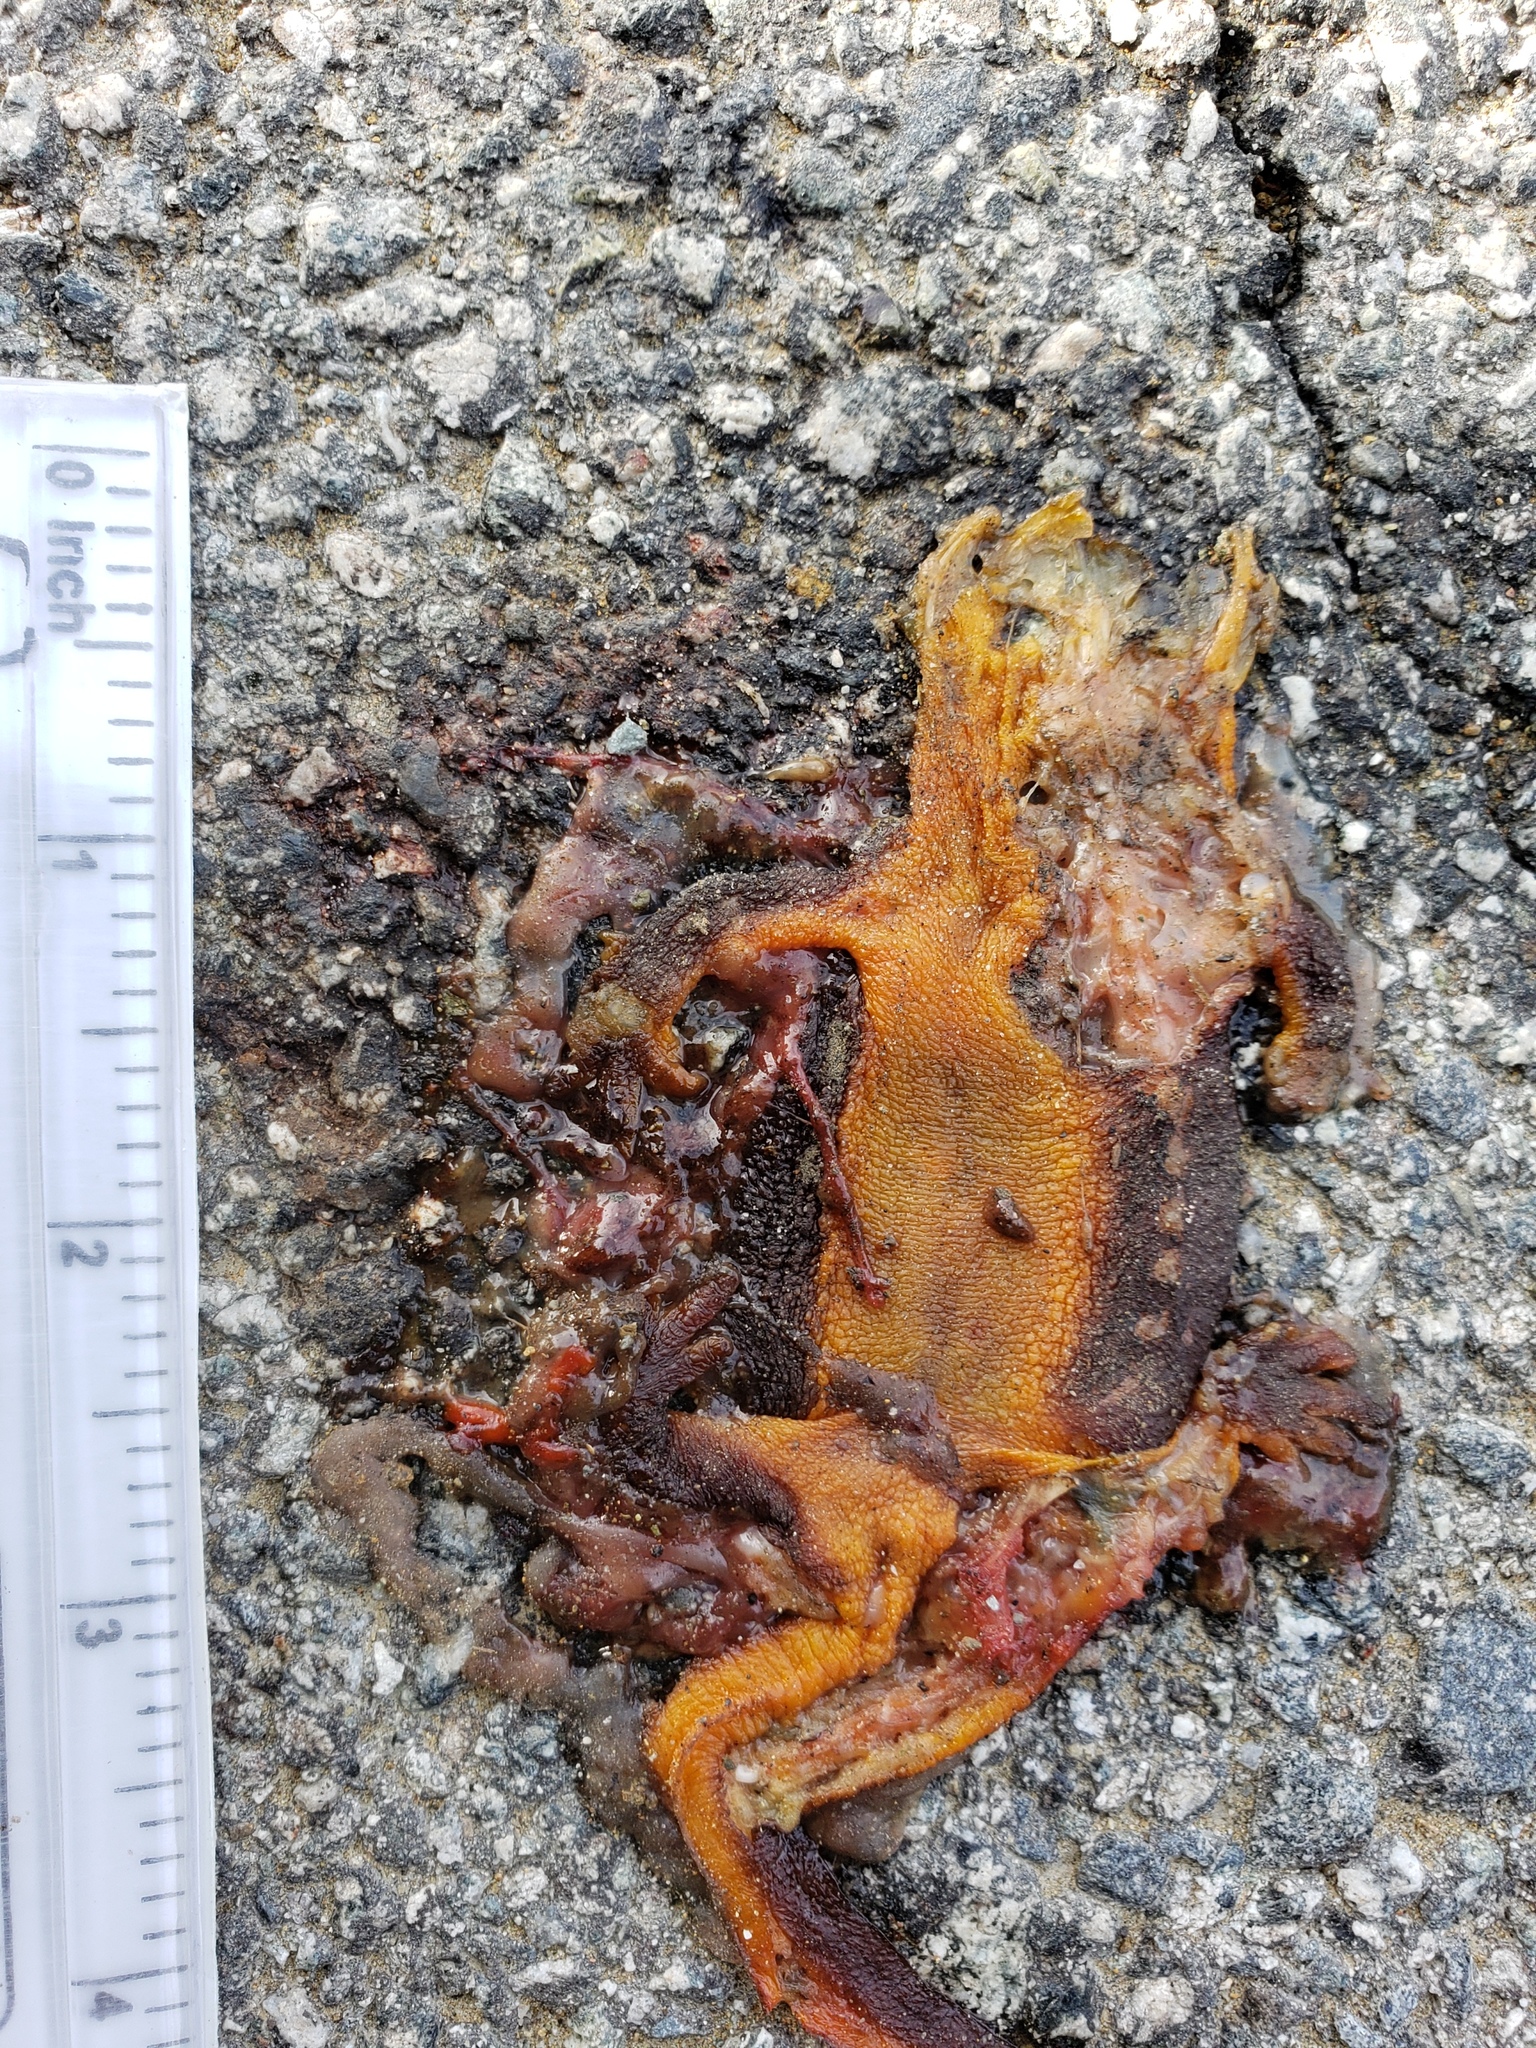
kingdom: Animalia
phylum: Chordata
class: Amphibia
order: Caudata
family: Salamandridae
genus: Taricha
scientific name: Taricha
